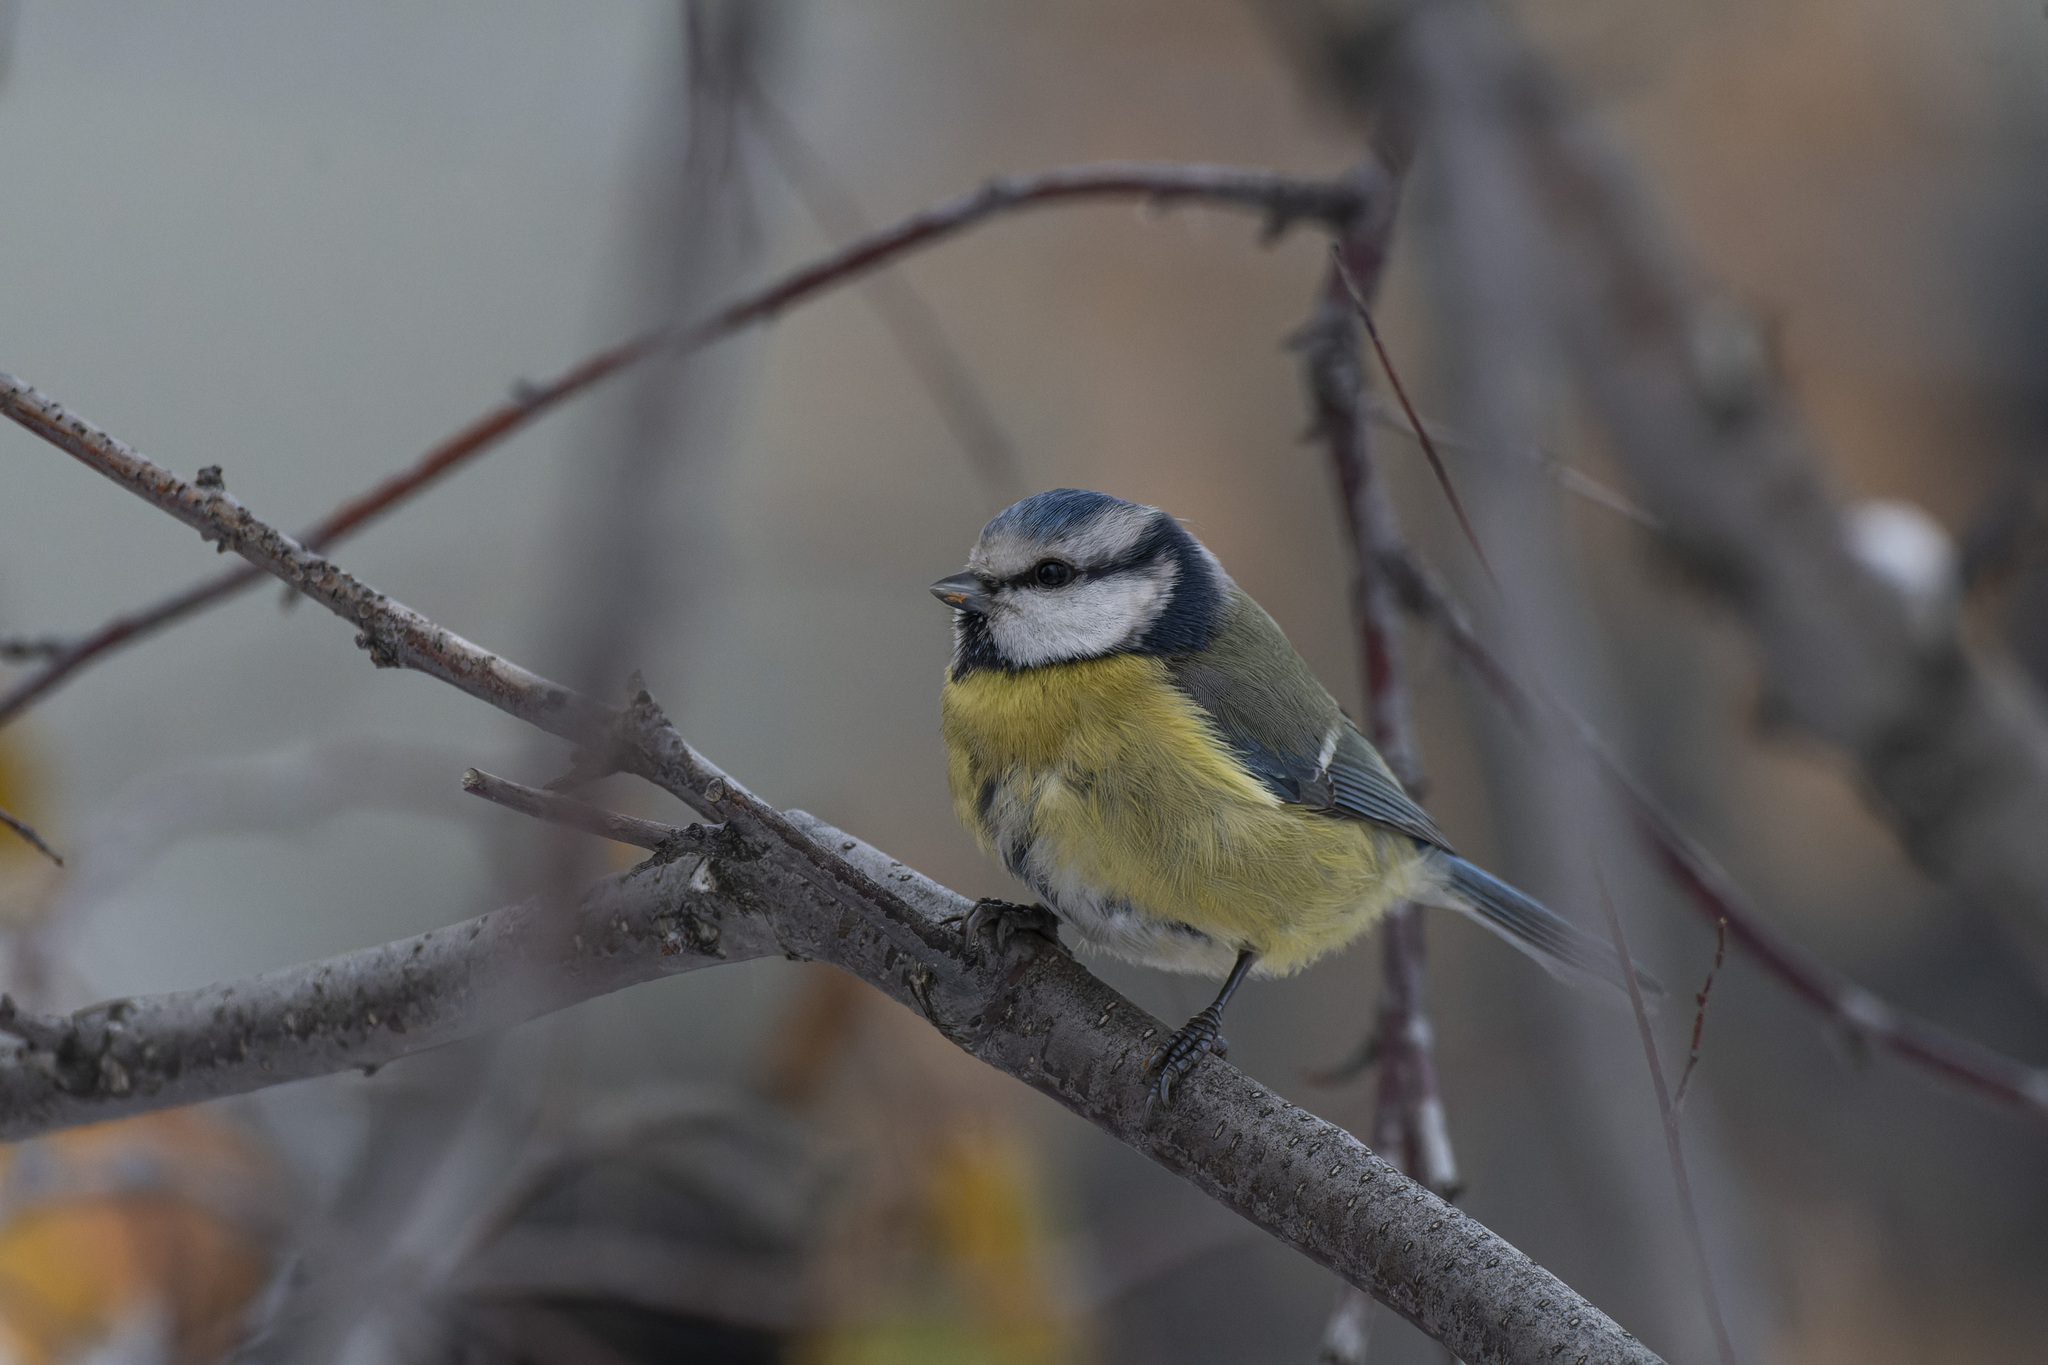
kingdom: Animalia
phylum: Chordata
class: Aves
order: Passeriformes
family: Paridae
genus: Cyanistes
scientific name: Cyanistes caeruleus
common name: Eurasian blue tit
